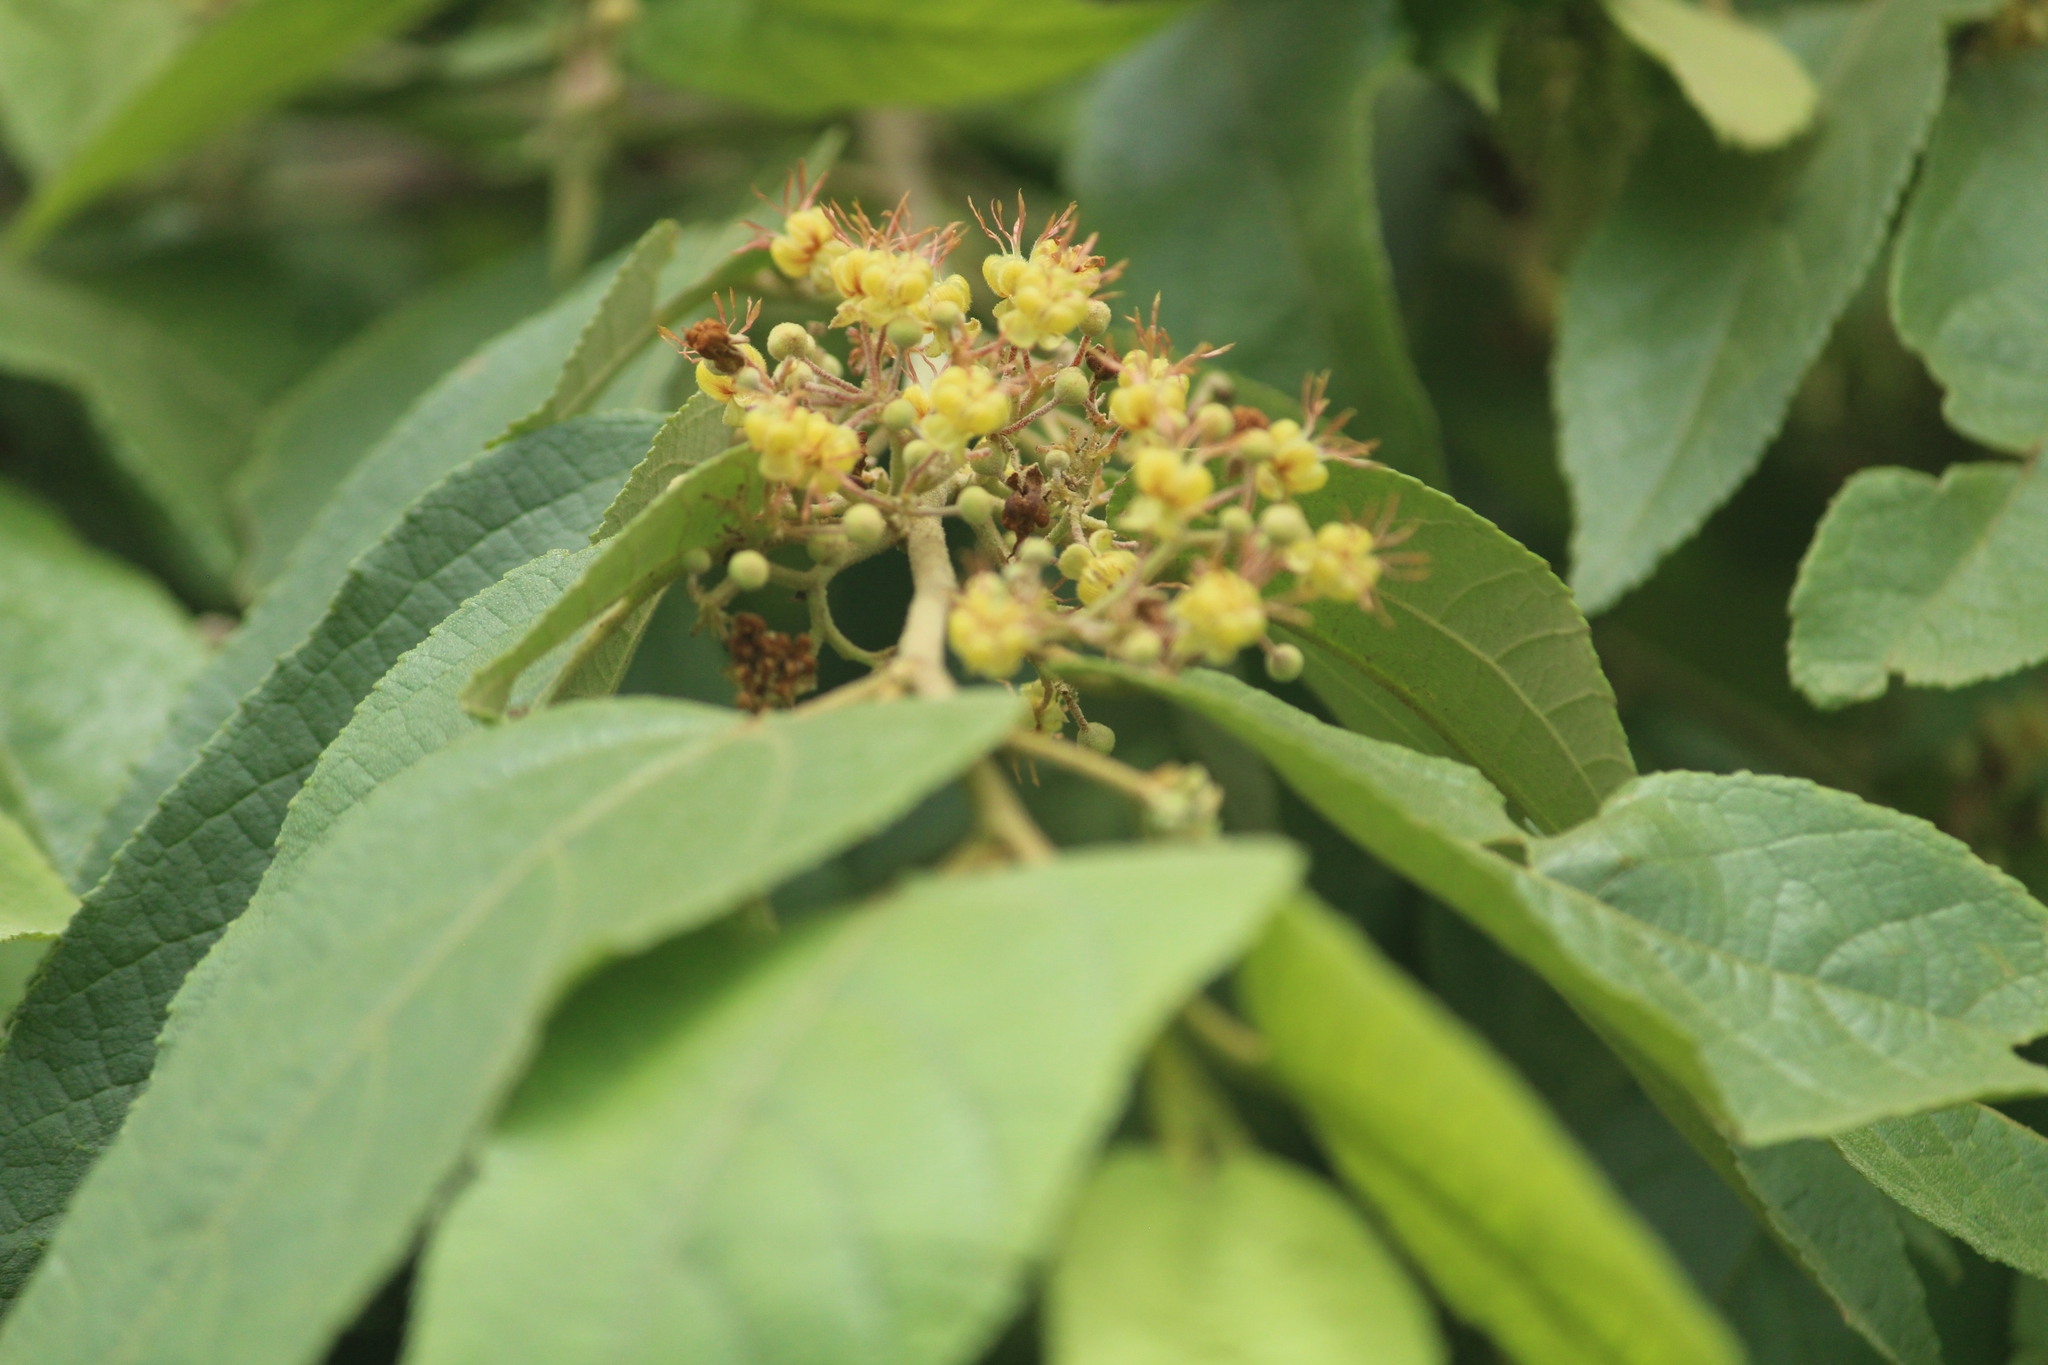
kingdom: Plantae
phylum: Tracheophyta
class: Magnoliopsida
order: Malvales
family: Malvaceae
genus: Guazuma
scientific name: Guazuma ulmifolia
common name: Bastard-cedar
